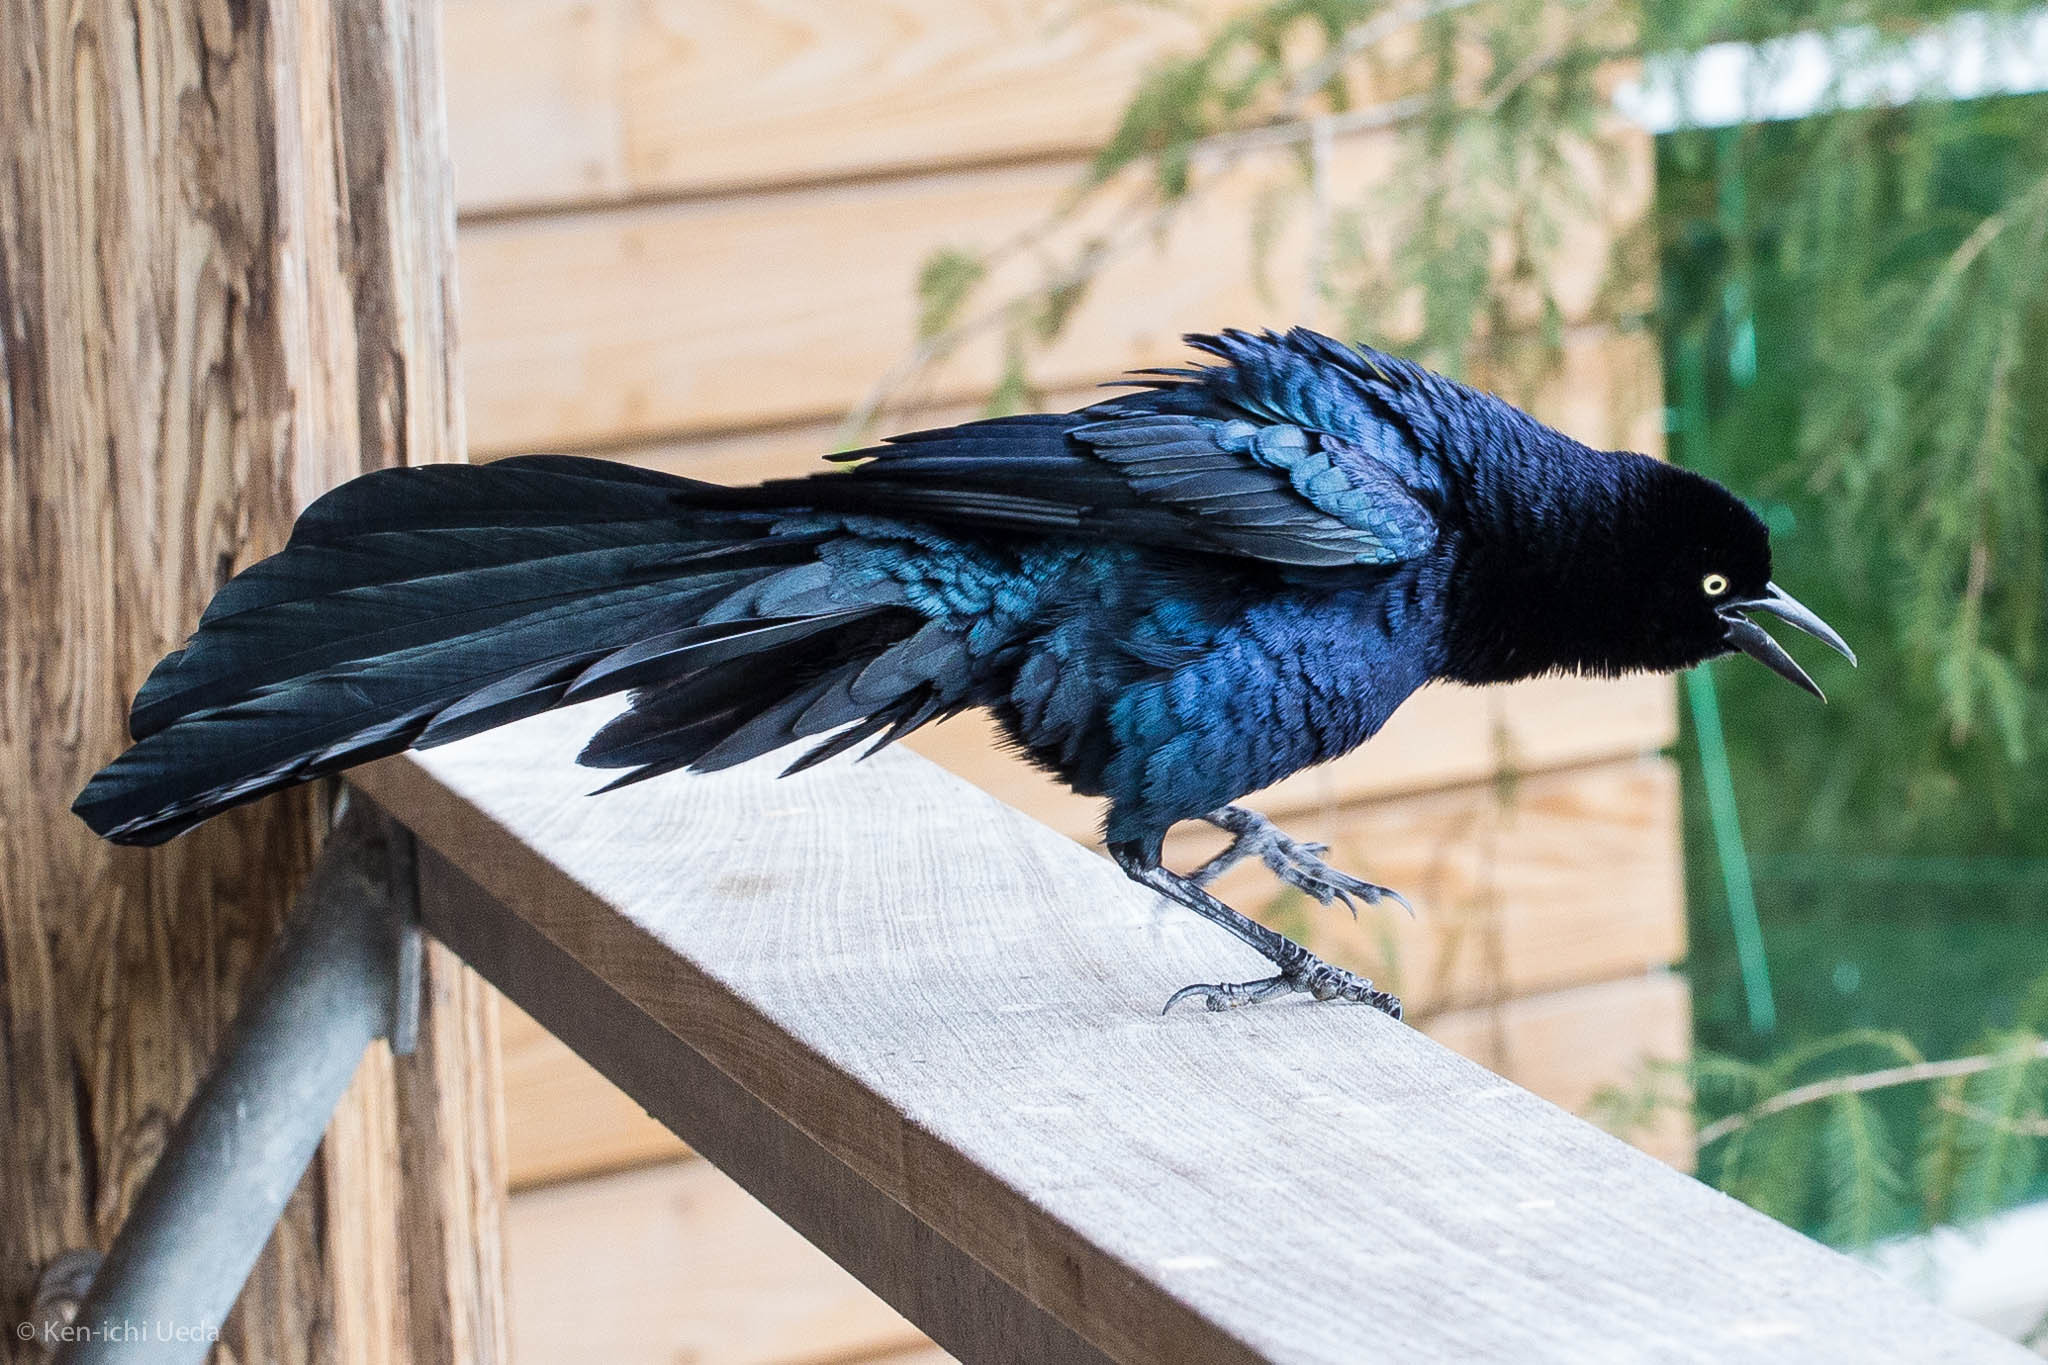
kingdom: Animalia
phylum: Chordata
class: Aves
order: Passeriformes
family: Icteridae
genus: Quiscalus
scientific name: Quiscalus mexicanus
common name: Great-tailed grackle
